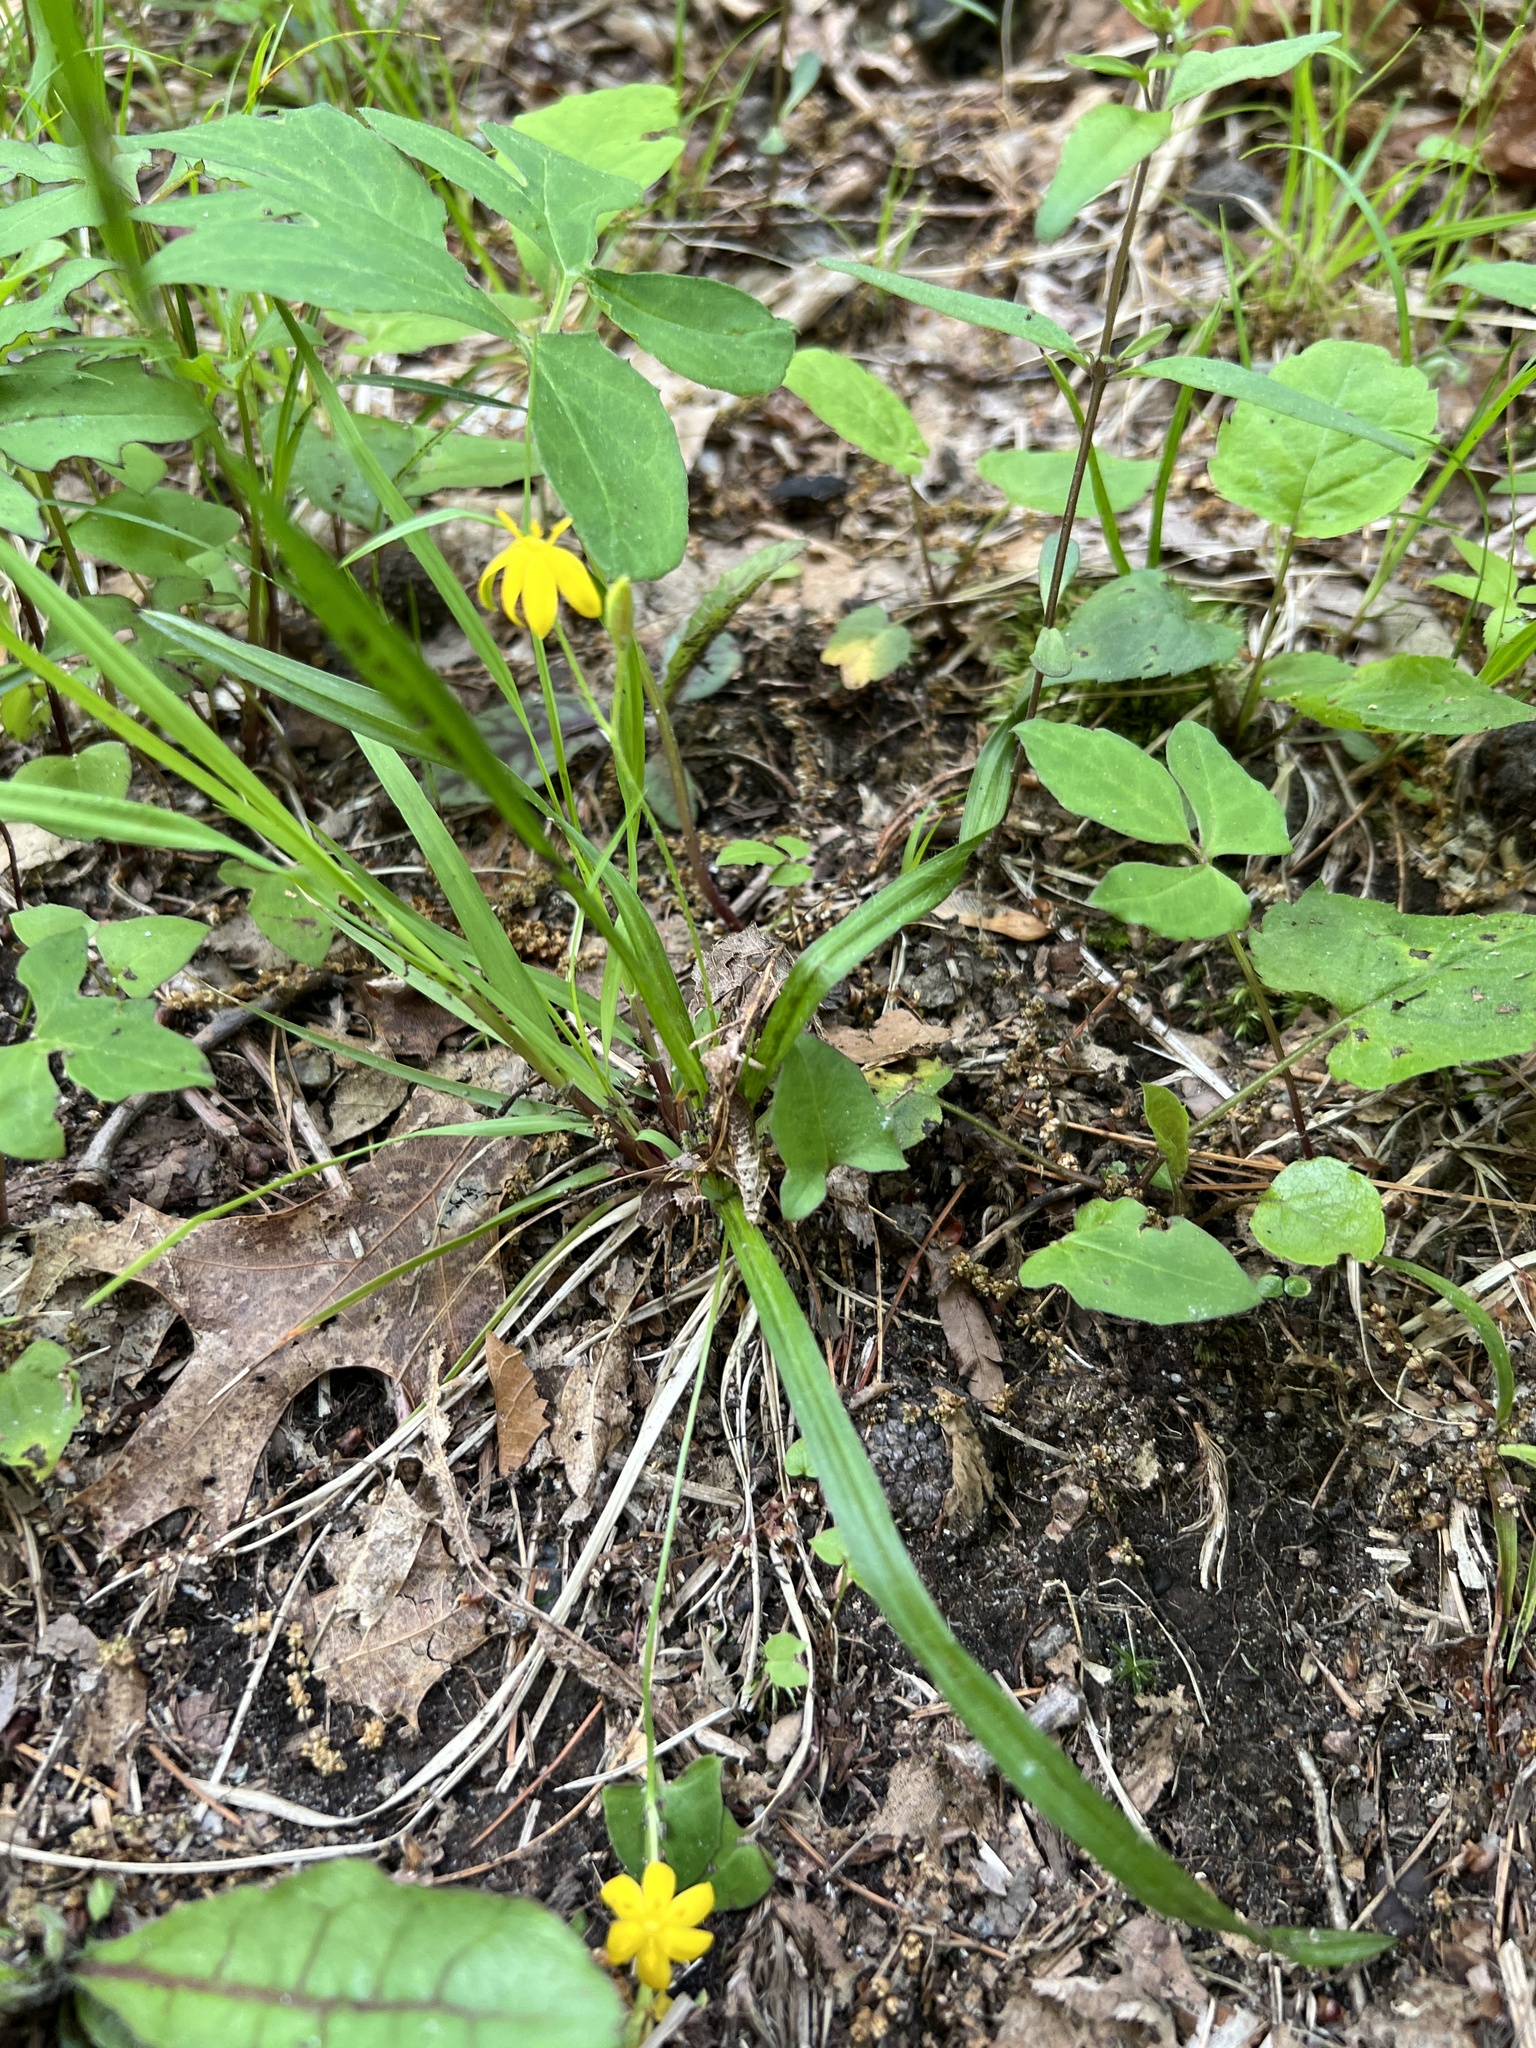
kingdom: Plantae
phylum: Tracheophyta
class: Liliopsida
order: Asparagales
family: Hypoxidaceae
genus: Hypoxis
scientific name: Hypoxis hirsuta
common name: Common goldstar
